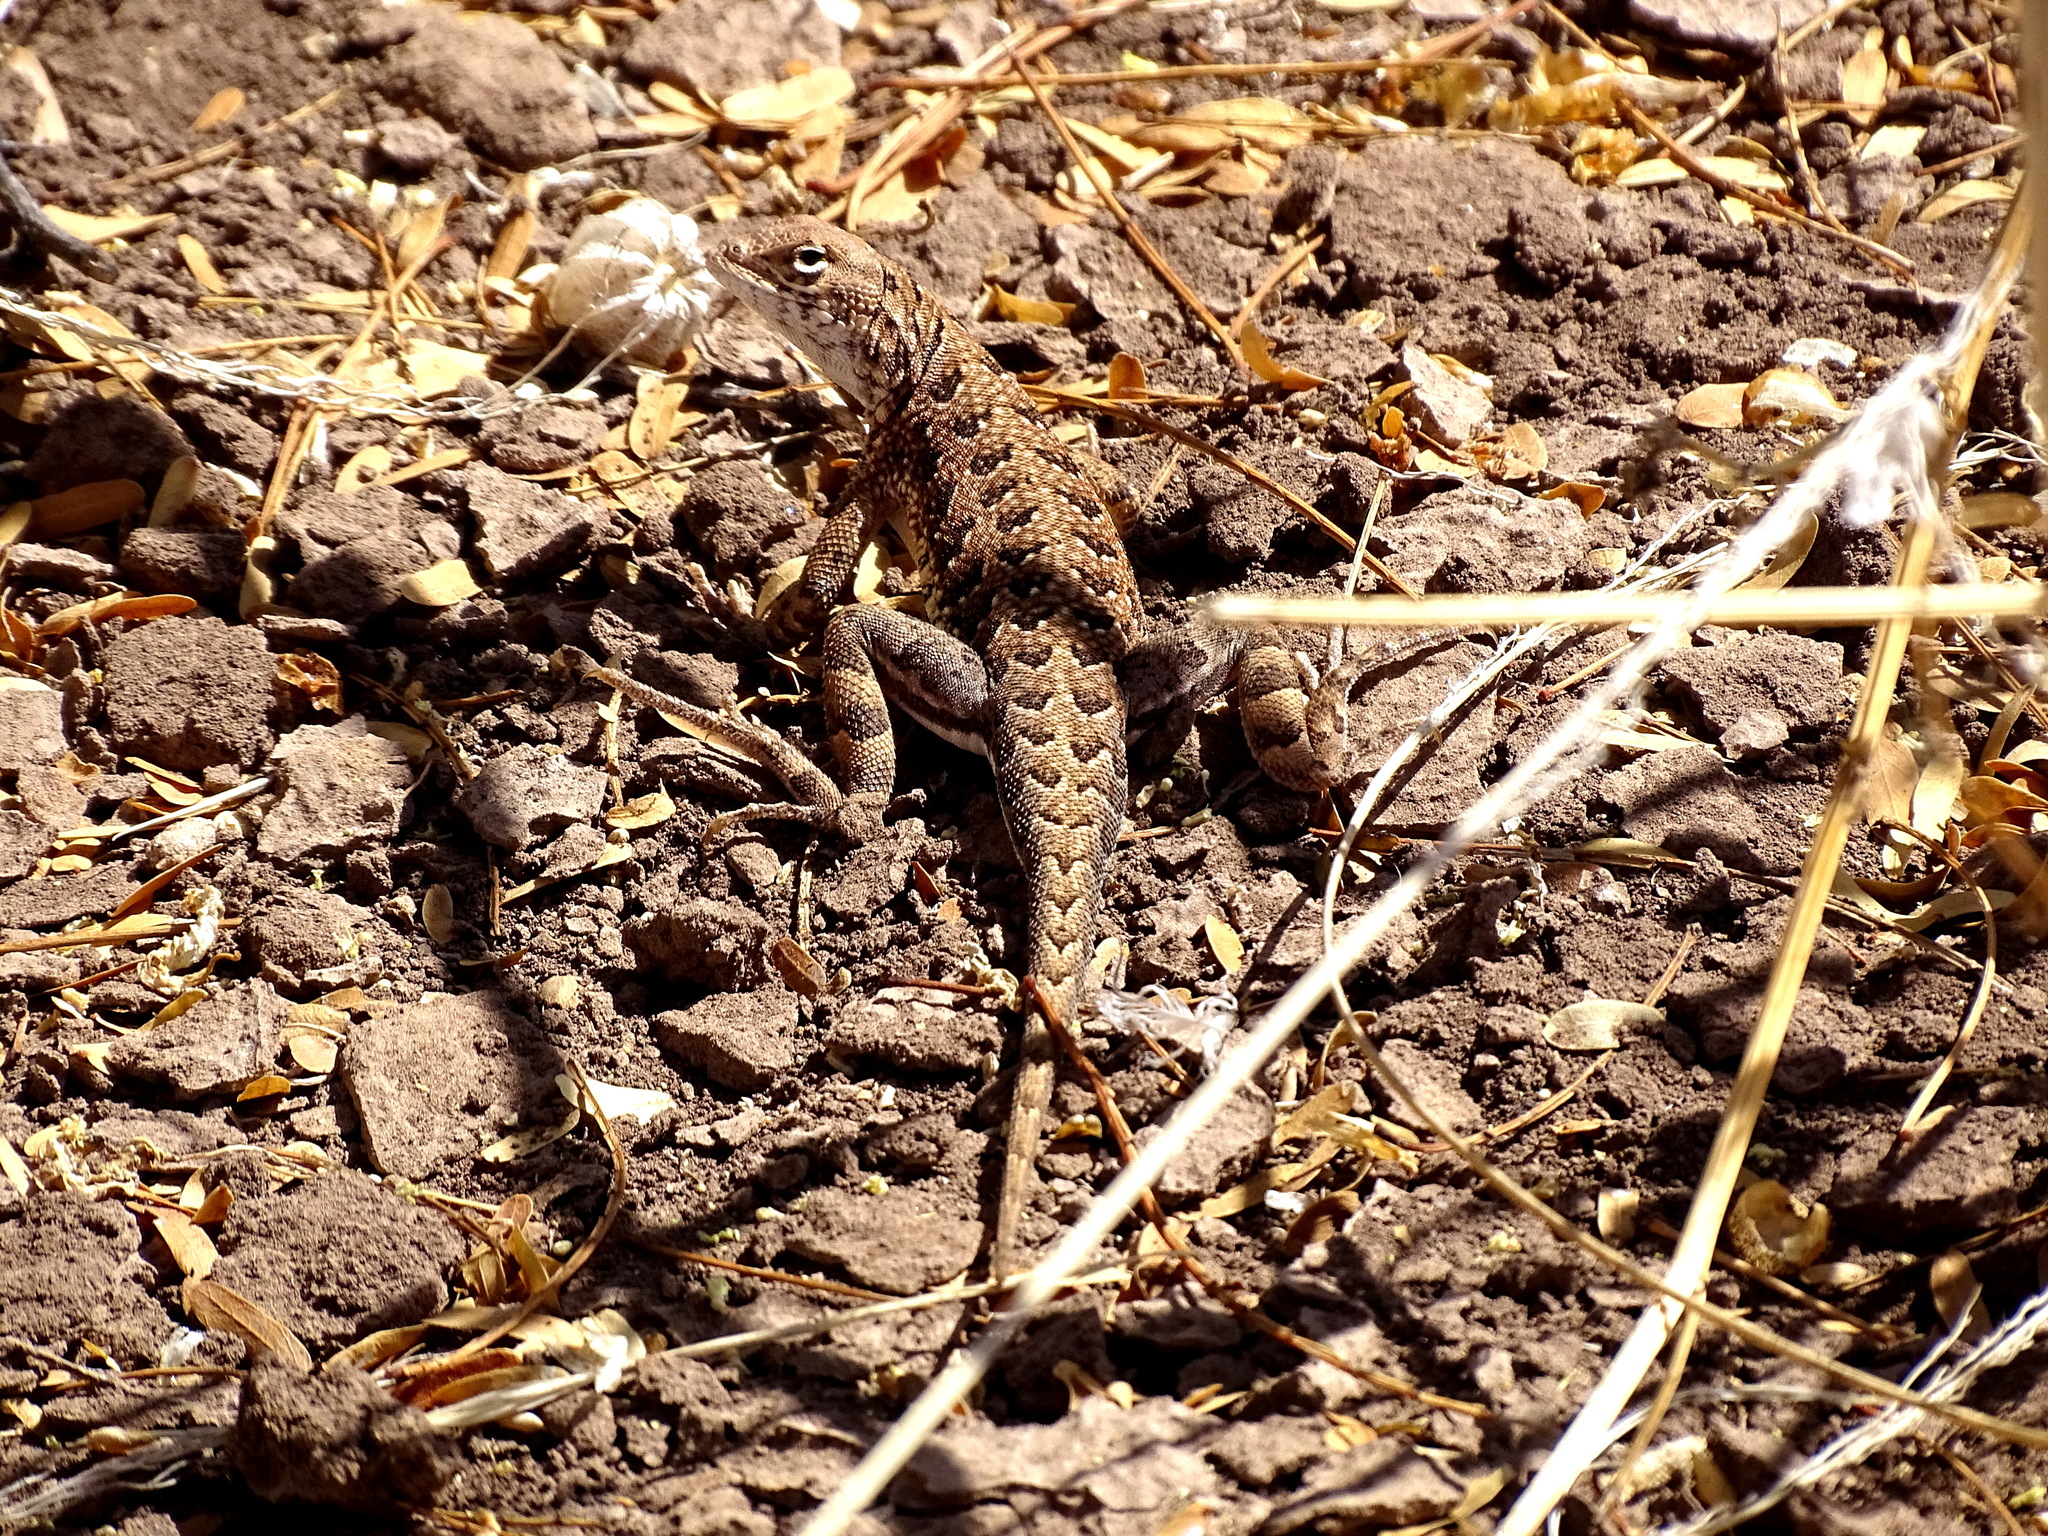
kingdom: Animalia
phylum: Chordata
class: Squamata
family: Phrynosomatidae
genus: Holbrookia
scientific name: Holbrookia elegans
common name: Elegant earless lizard
